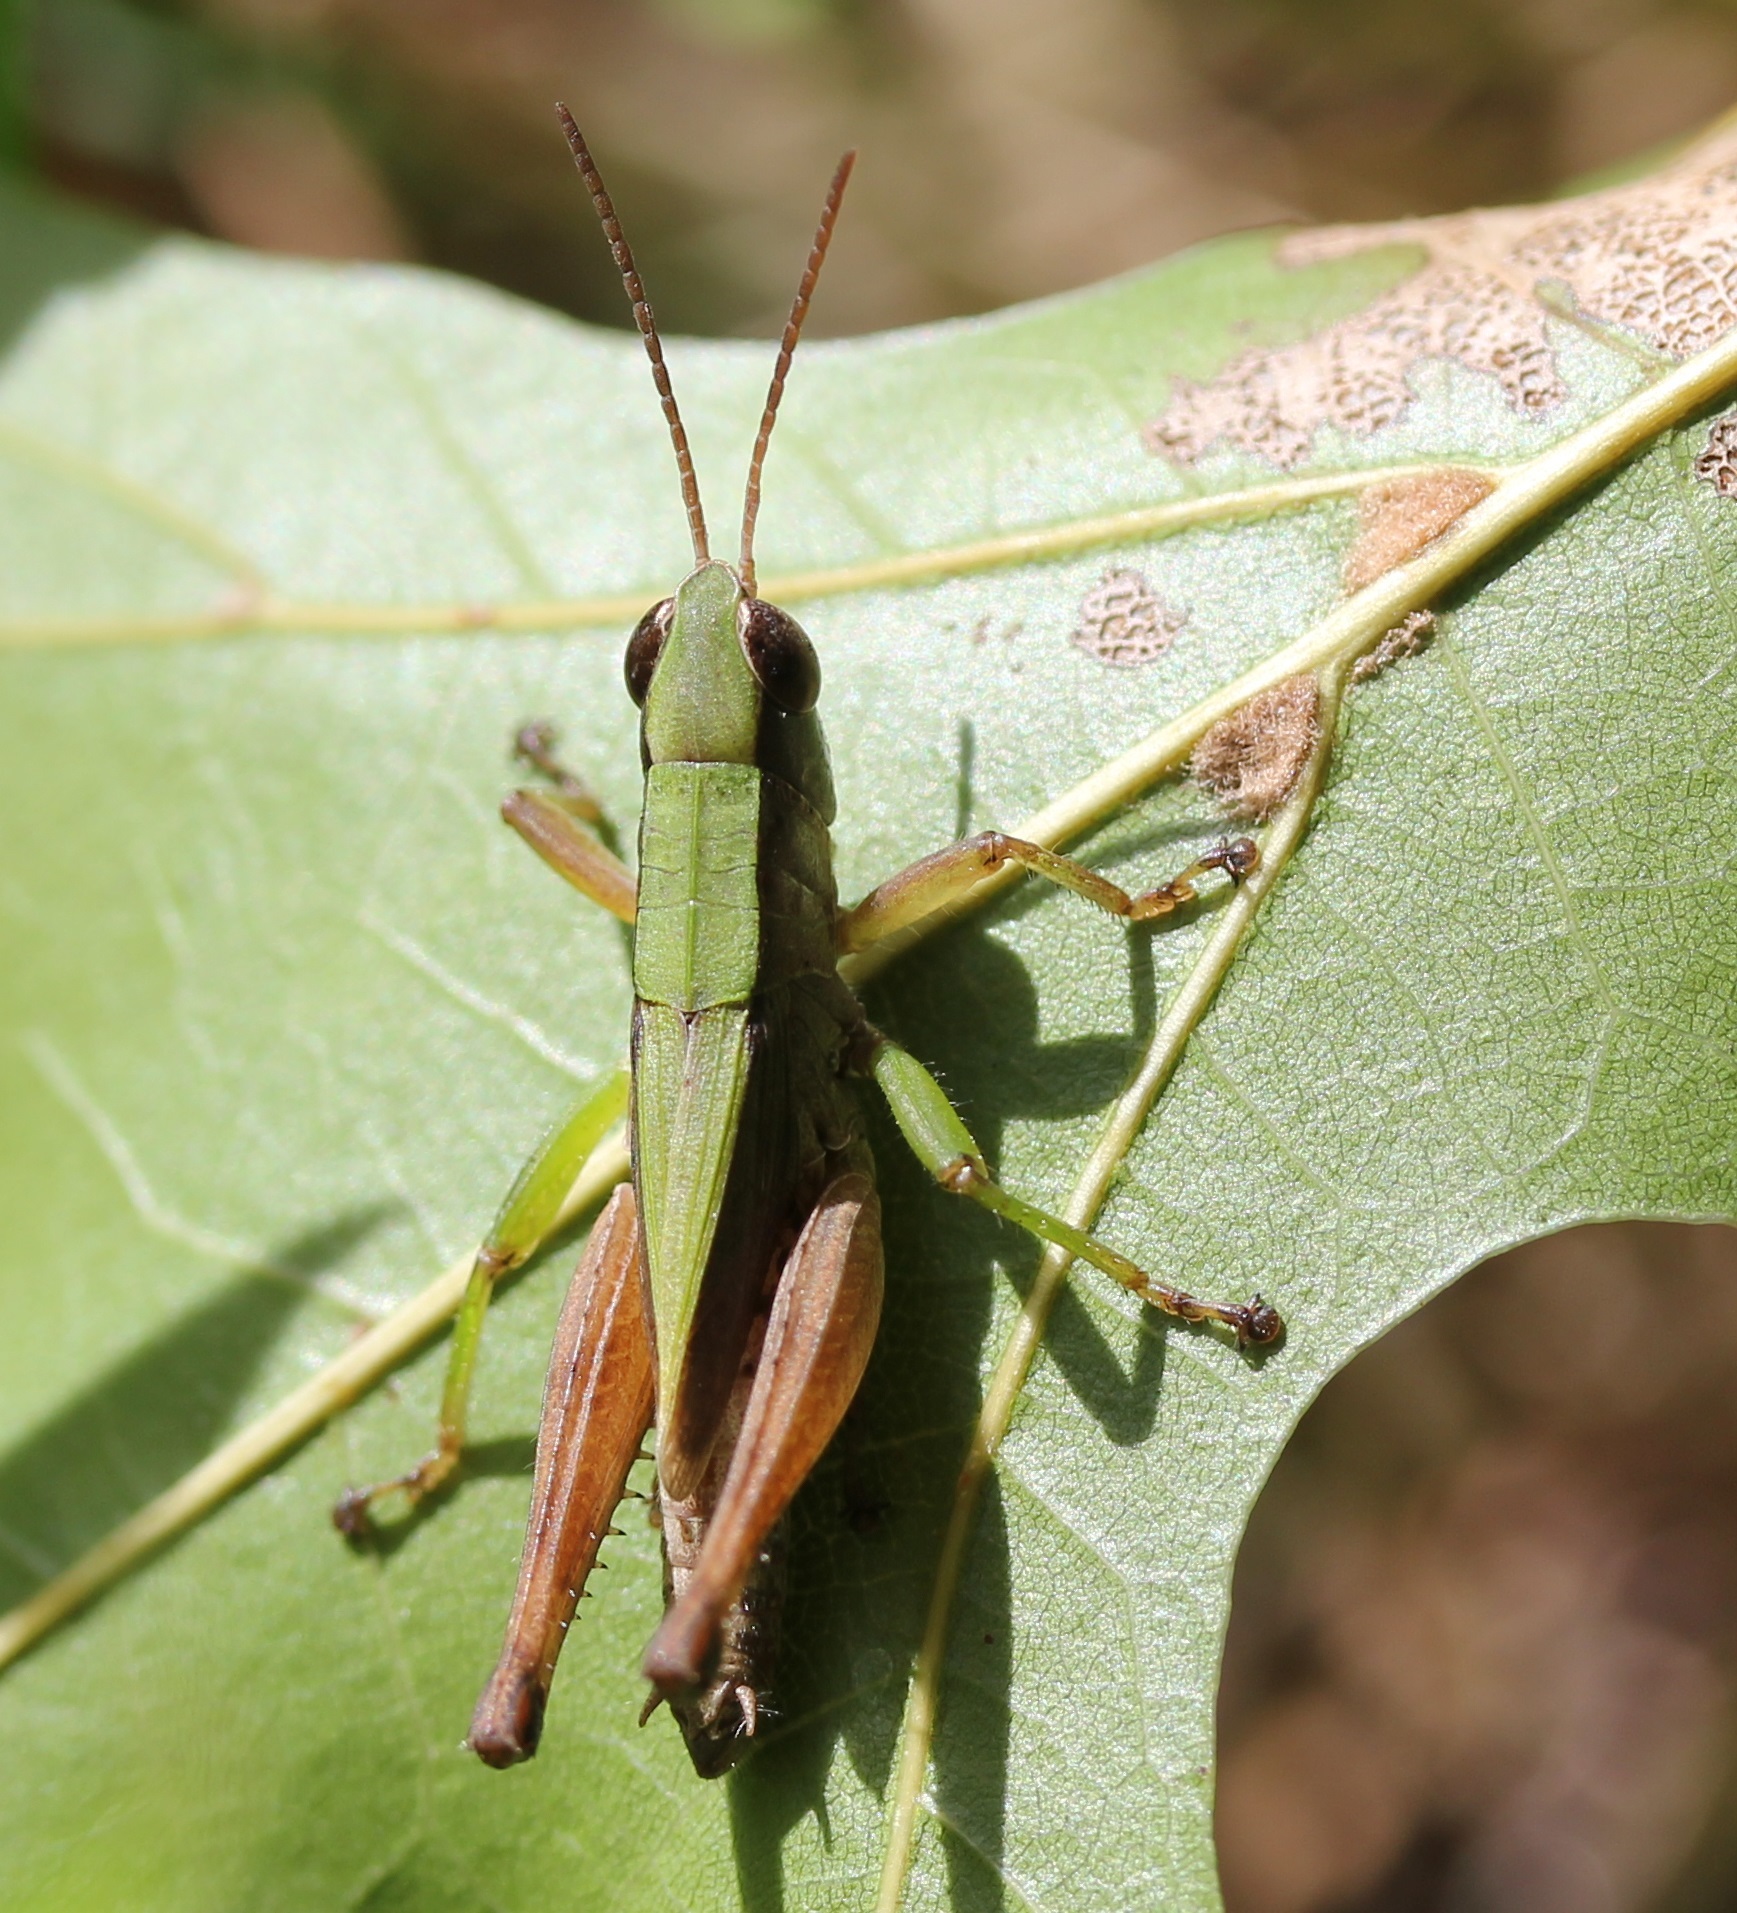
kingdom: Animalia
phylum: Arthropoda
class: Insecta
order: Orthoptera
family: Acrididae
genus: Dichromorpha
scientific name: Dichromorpha viridis
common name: Short-winged green grasshopper
